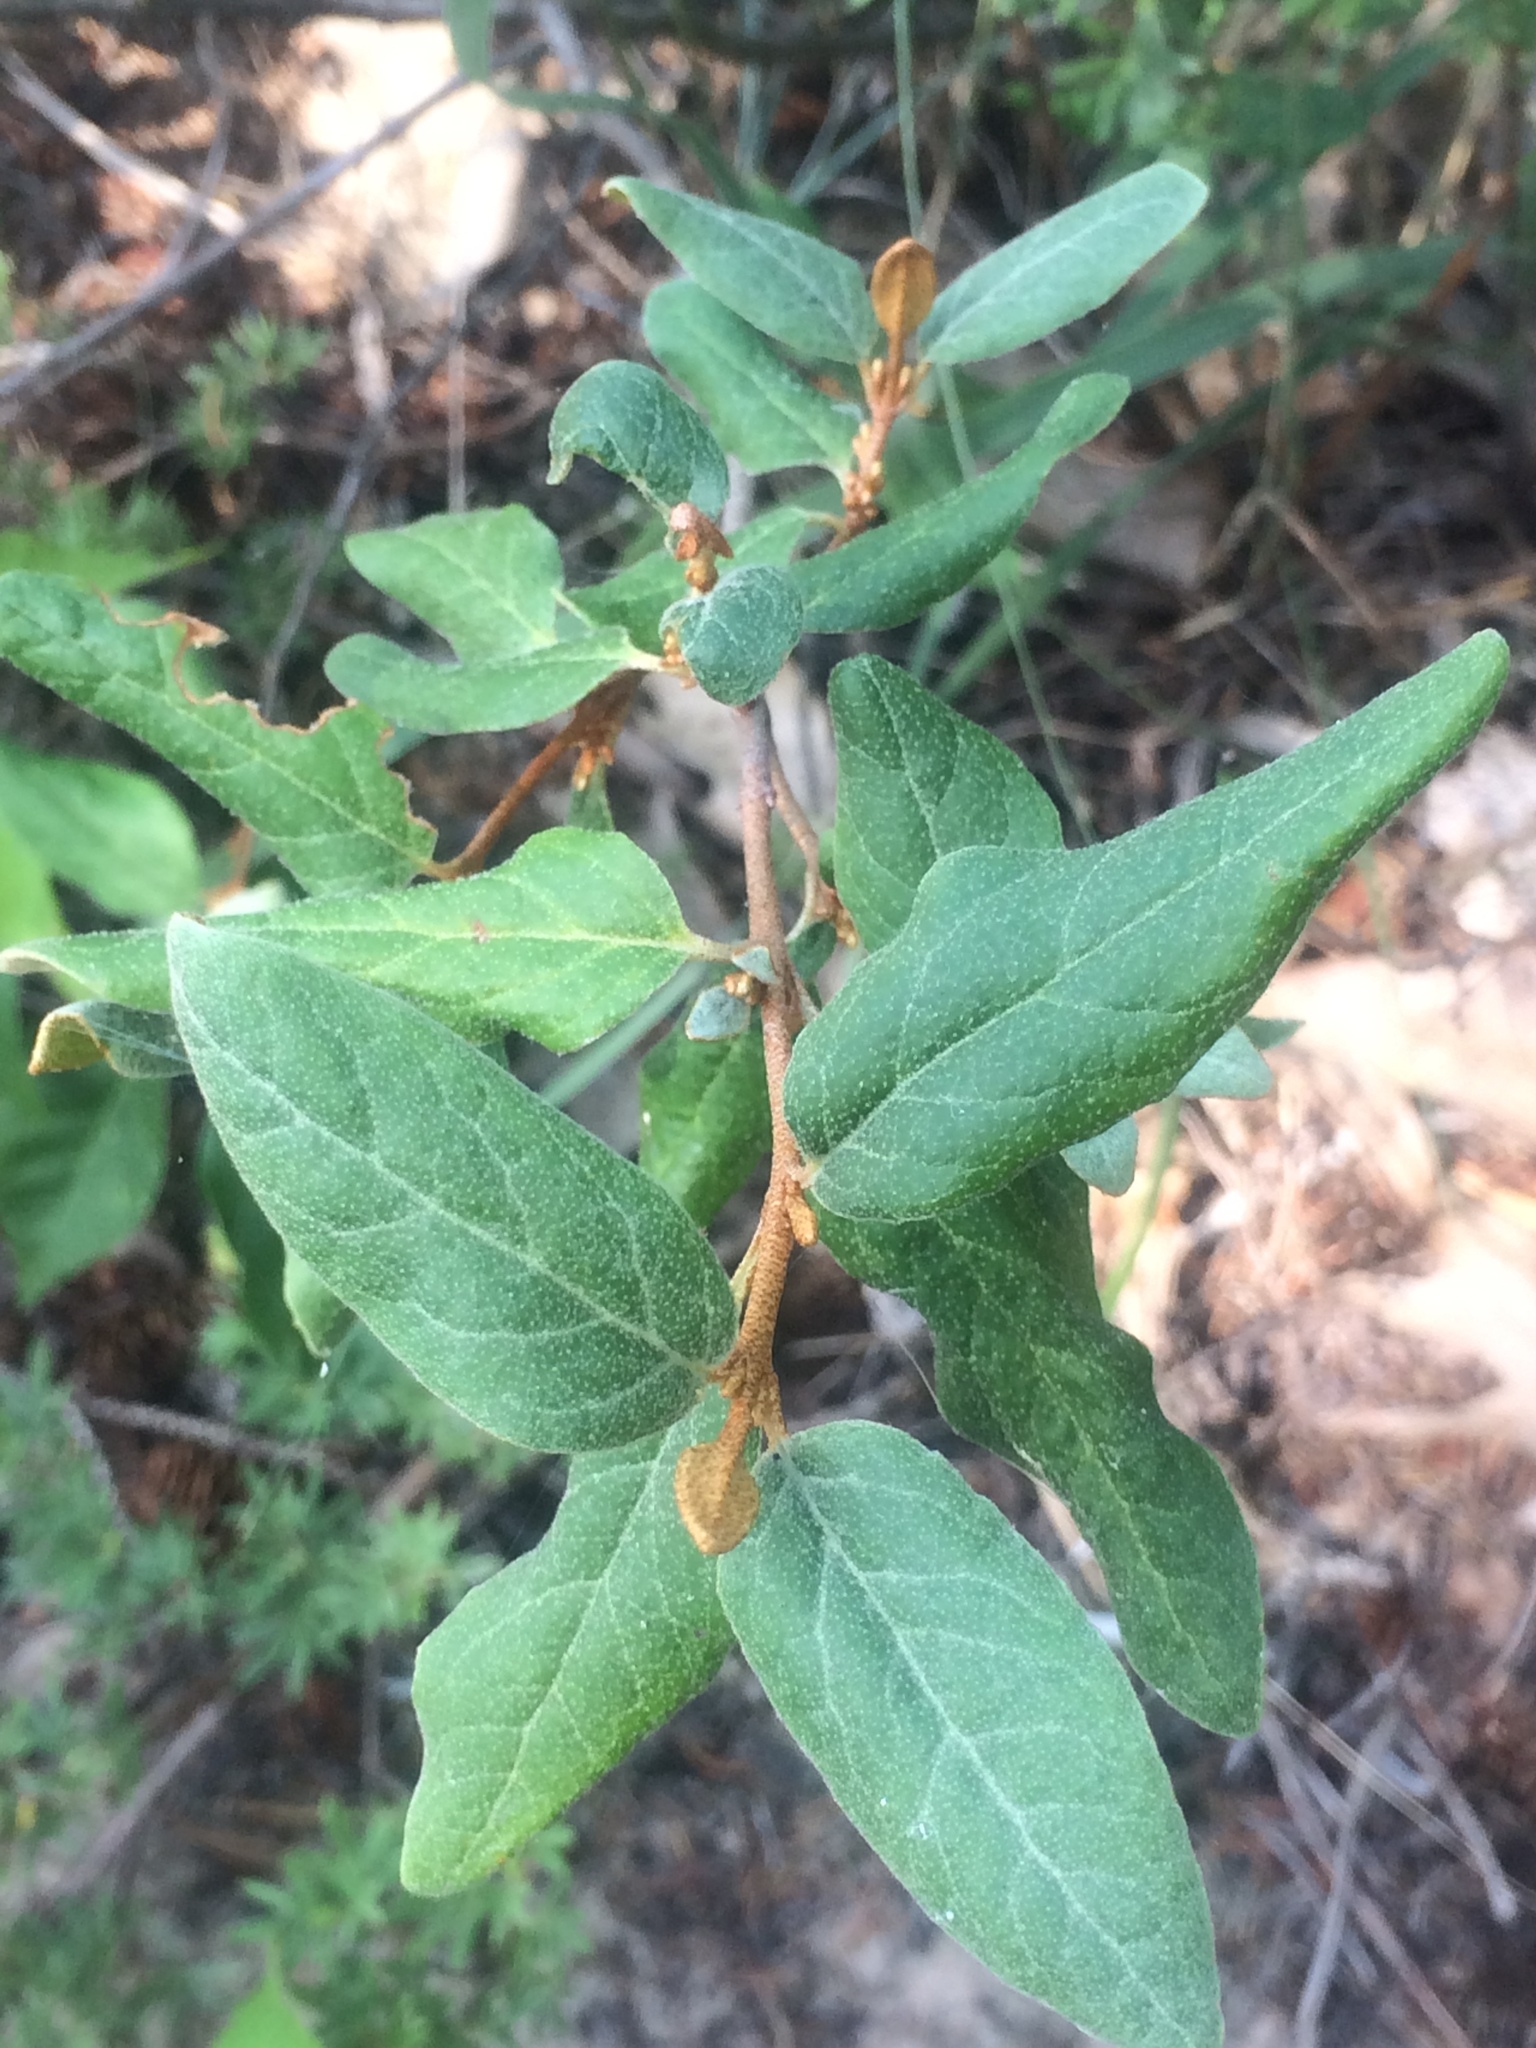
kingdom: Plantae
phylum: Tracheophyta
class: Magnoliopsida
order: Rosales
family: Elaeagnaceae
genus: Shepherdia
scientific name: Shepherdia canadensis
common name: Soapberry
